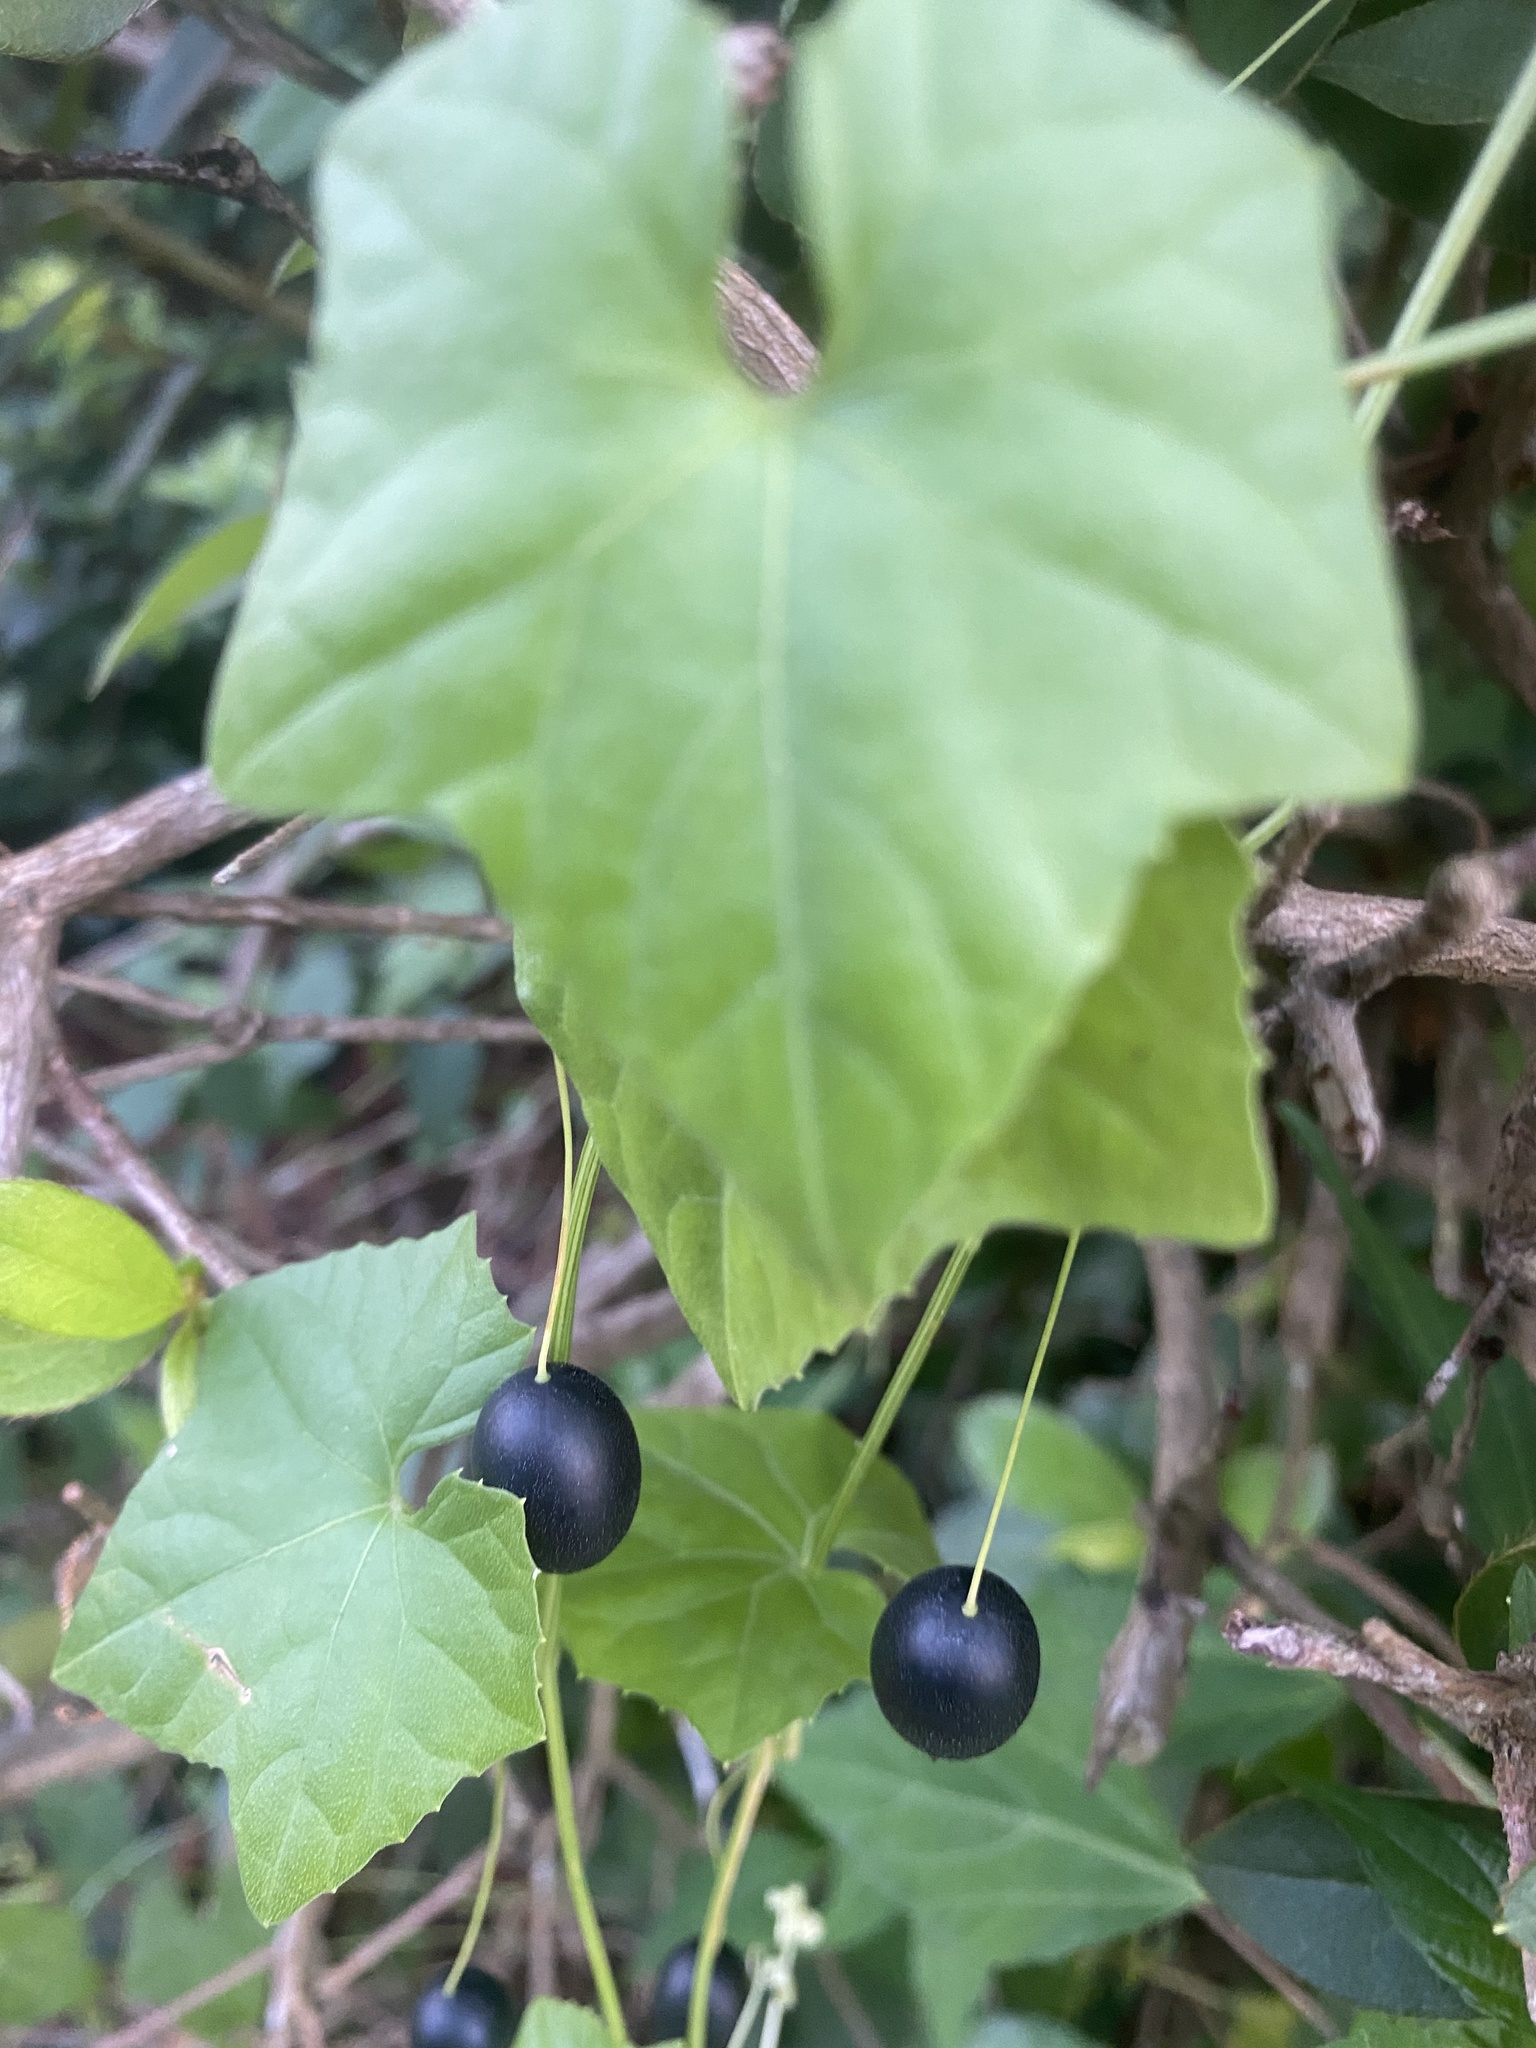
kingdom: Plantae
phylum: Tracheophyta
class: Magnoliopsida
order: Cucurbitales
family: Cucurbitaceae
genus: Melothria
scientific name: Melothria pendula
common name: Creeping-cucumber
